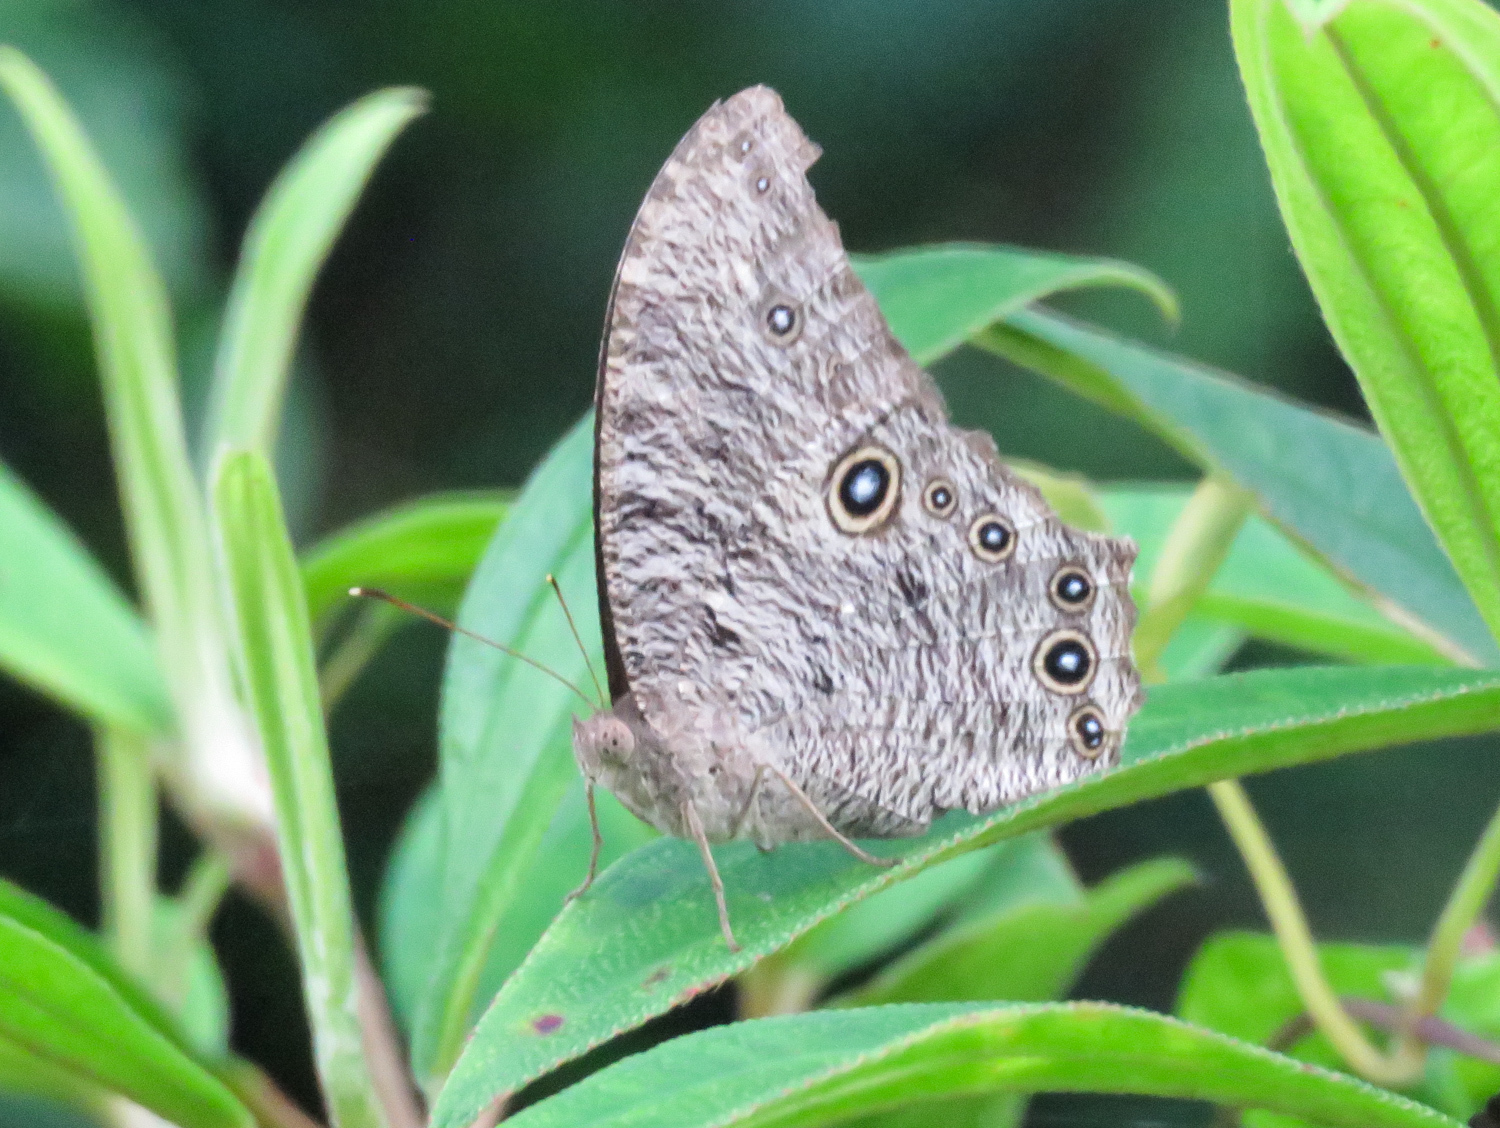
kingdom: Animalia
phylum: Arthropoda
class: Insecta
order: Lepidoptera
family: Nymphalidae
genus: Melanitis
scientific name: Melanitis leda
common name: Twilight brown
